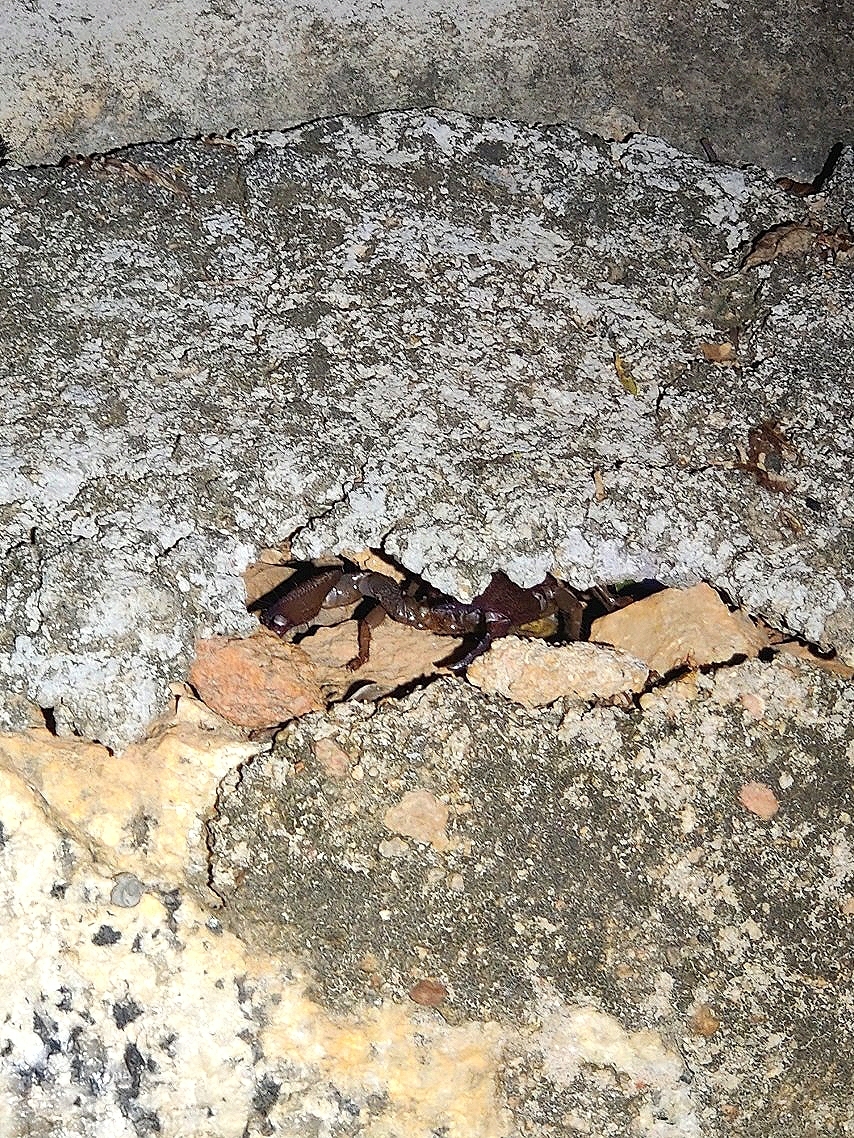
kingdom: Animalia
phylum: Arthropoda
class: Arachnida
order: Scorpiones
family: Scorpionidae
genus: Gigantometrus
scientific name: Gigantometrus swammerdami
